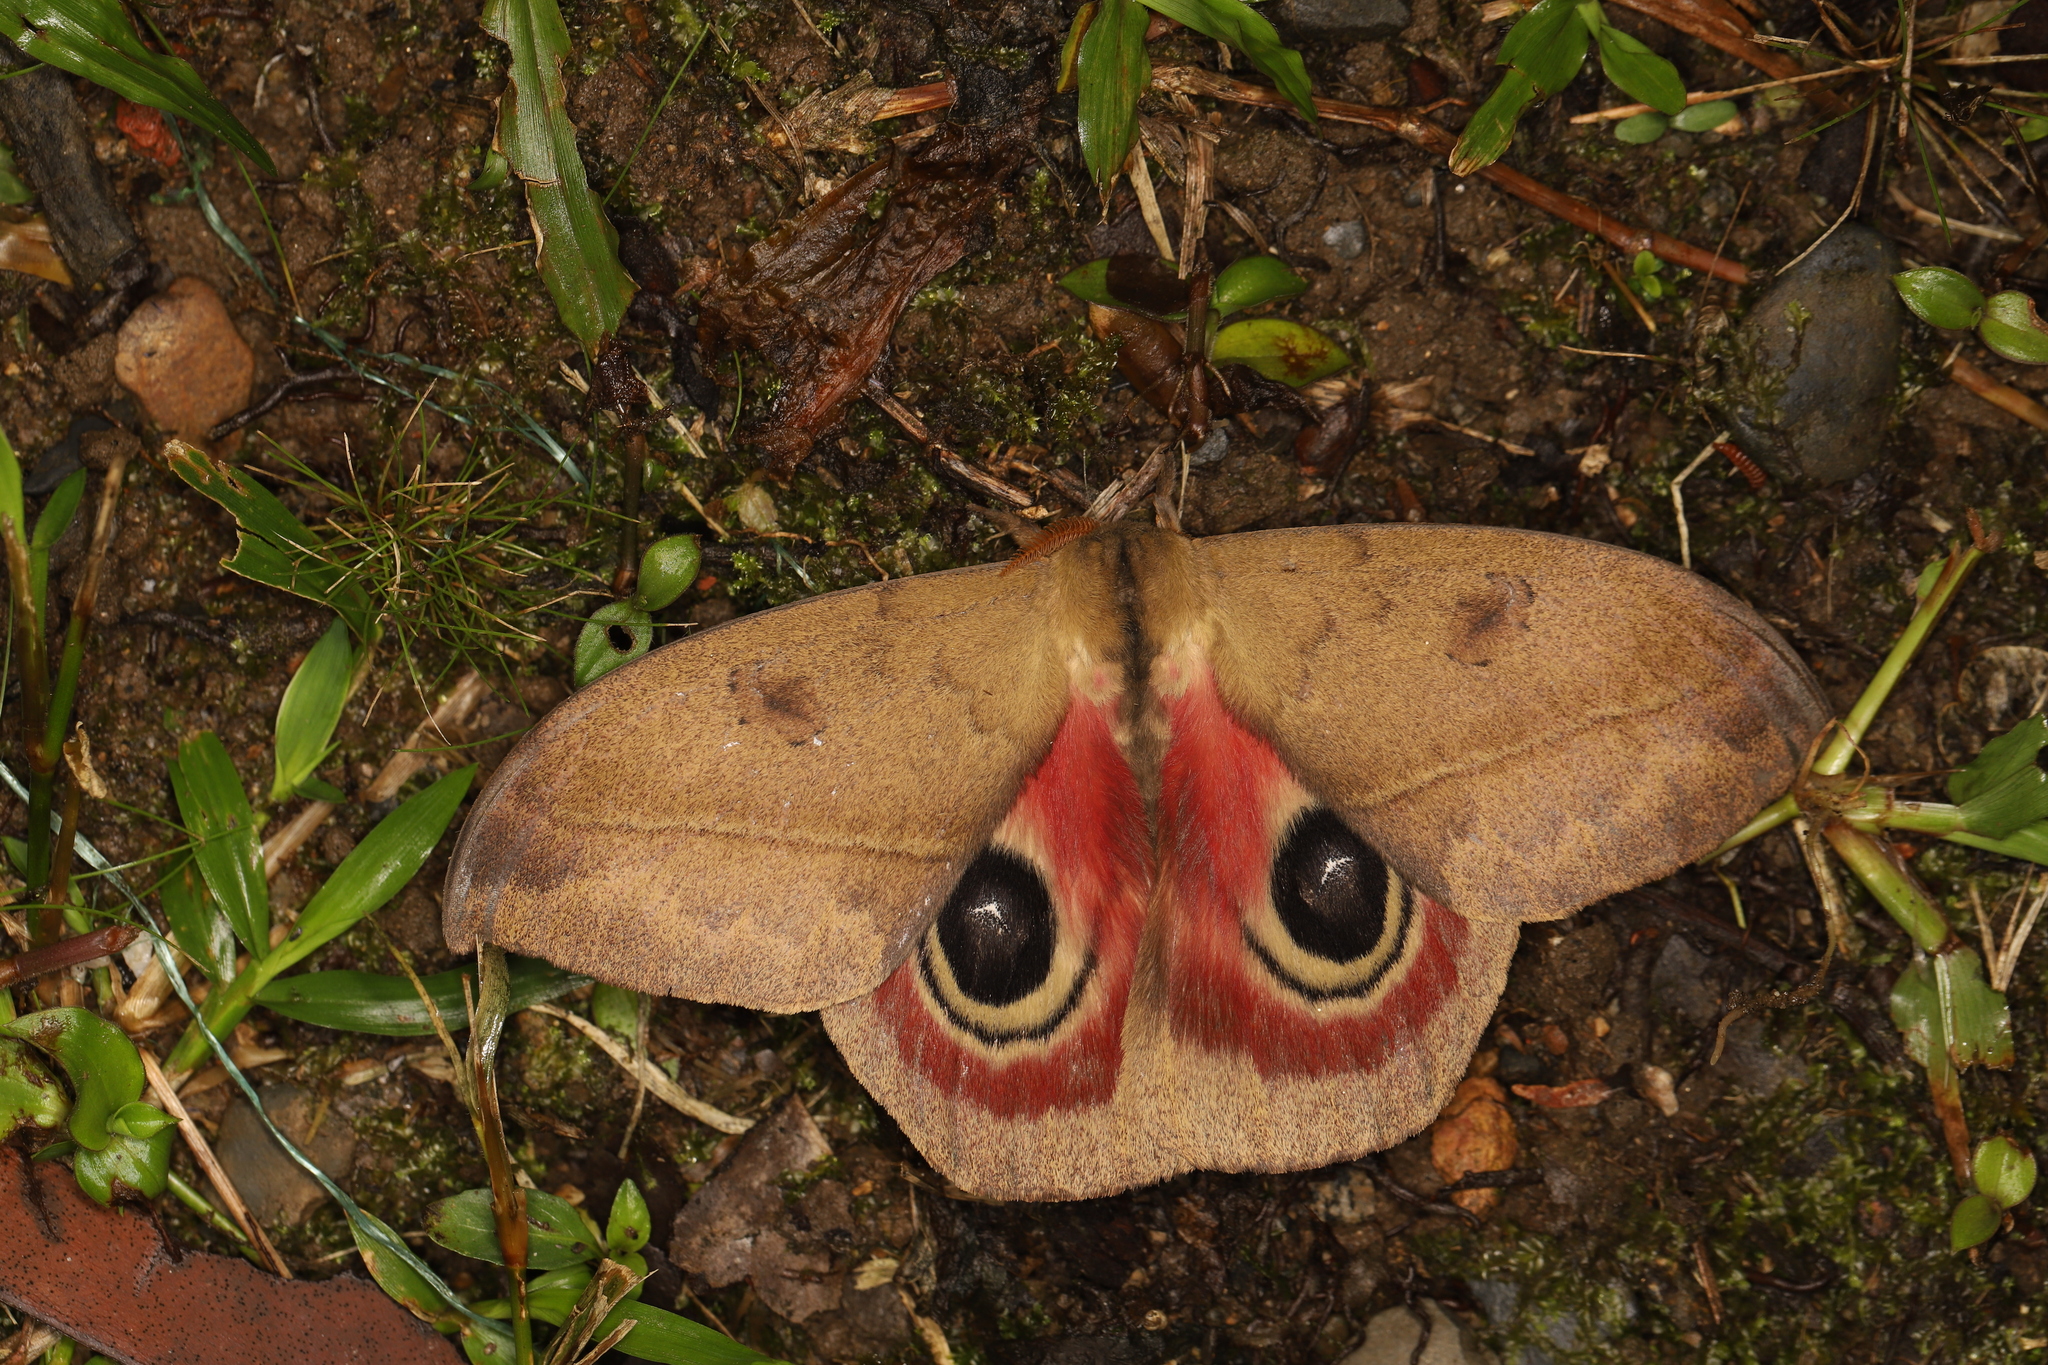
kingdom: Animalia
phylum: Arthropoda
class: Insecta
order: Lepidoptera
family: Saturniidae
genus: Automeris
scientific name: Automeris dagmarae
